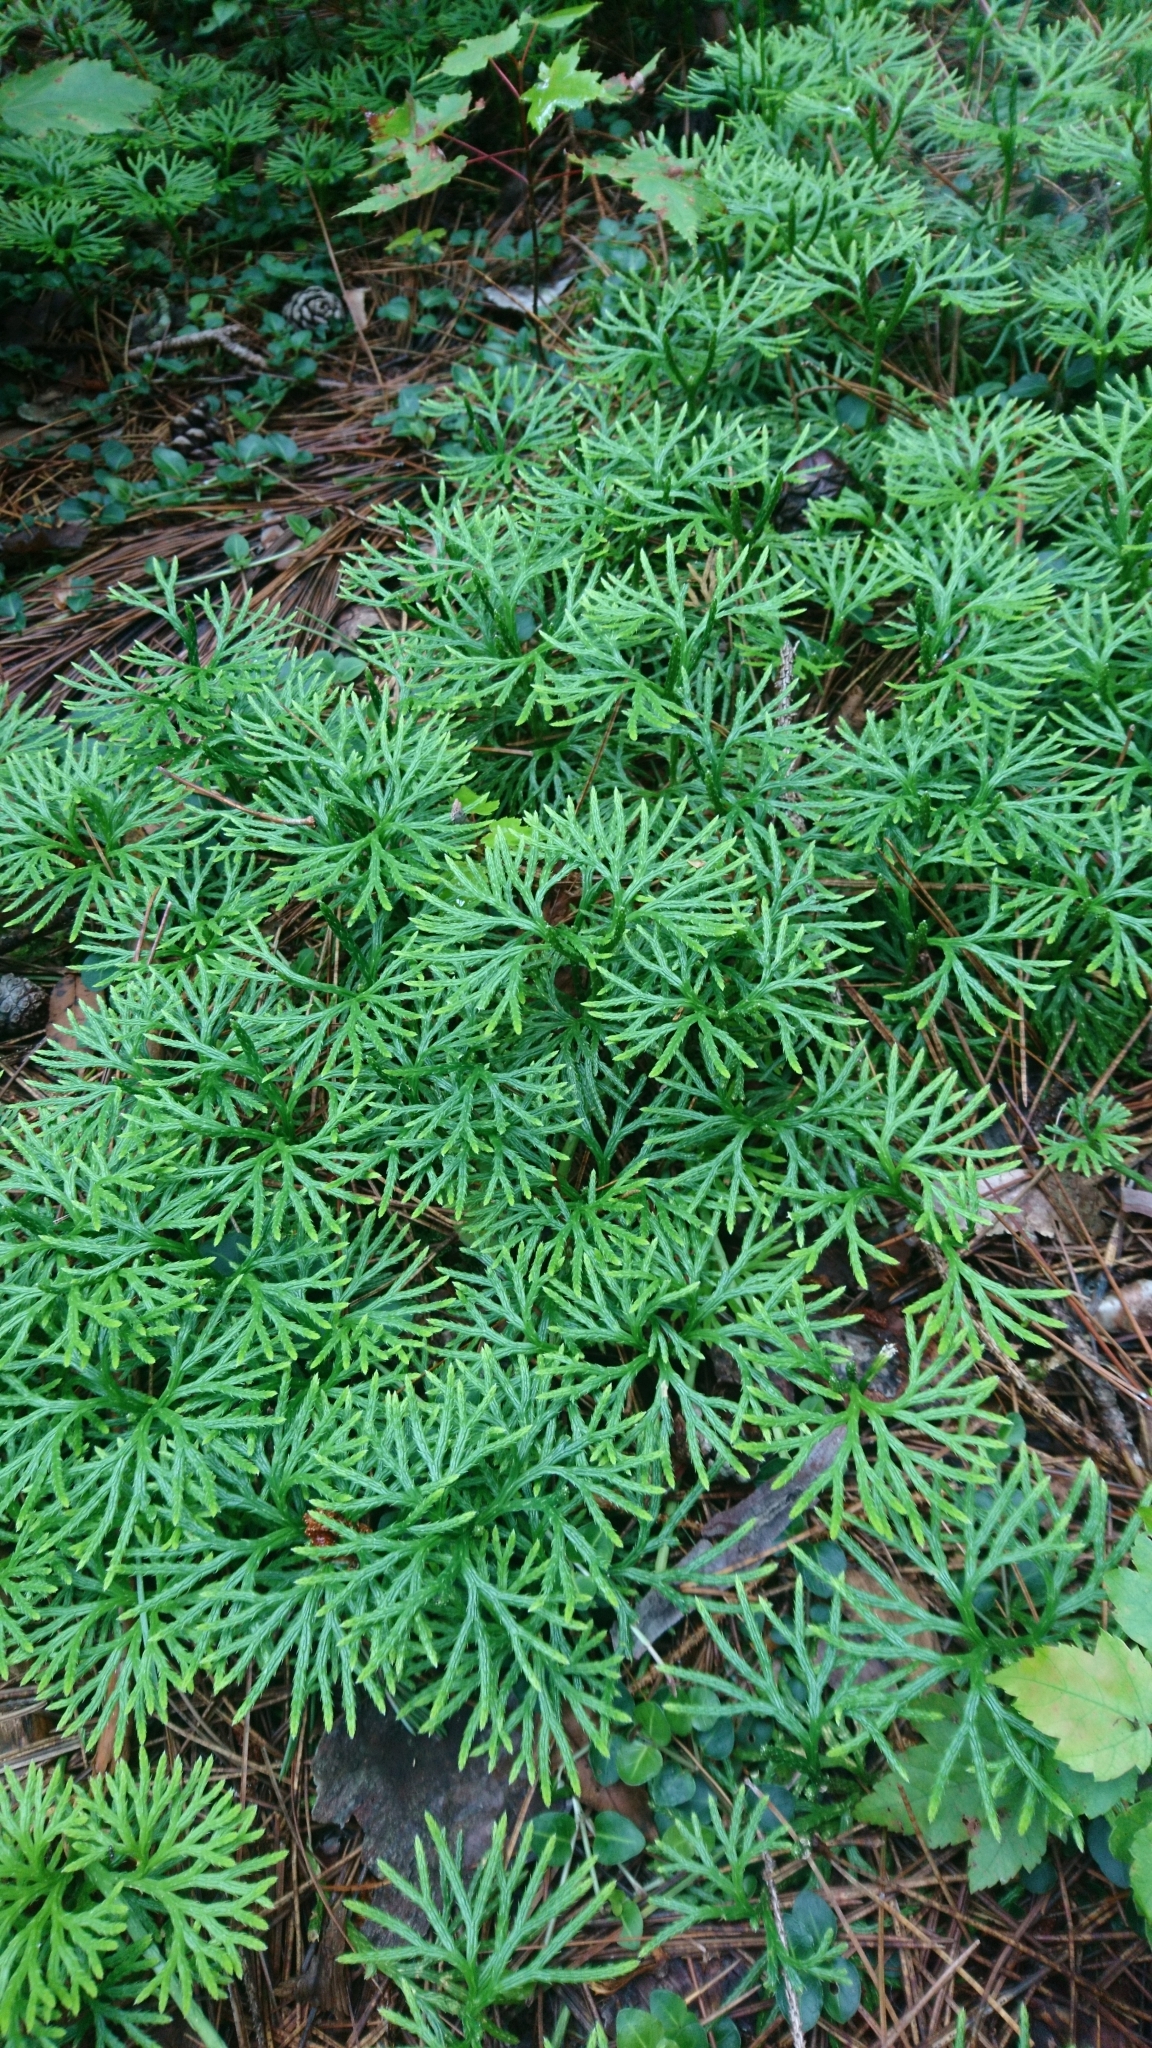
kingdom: Plantae
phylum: Tracheophyta
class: Lycopodiopsida
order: Lycopodiales
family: Lycopodiaceae
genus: Diphasiastrum
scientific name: Diphasiastrum digitatum
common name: Southern running-pine
